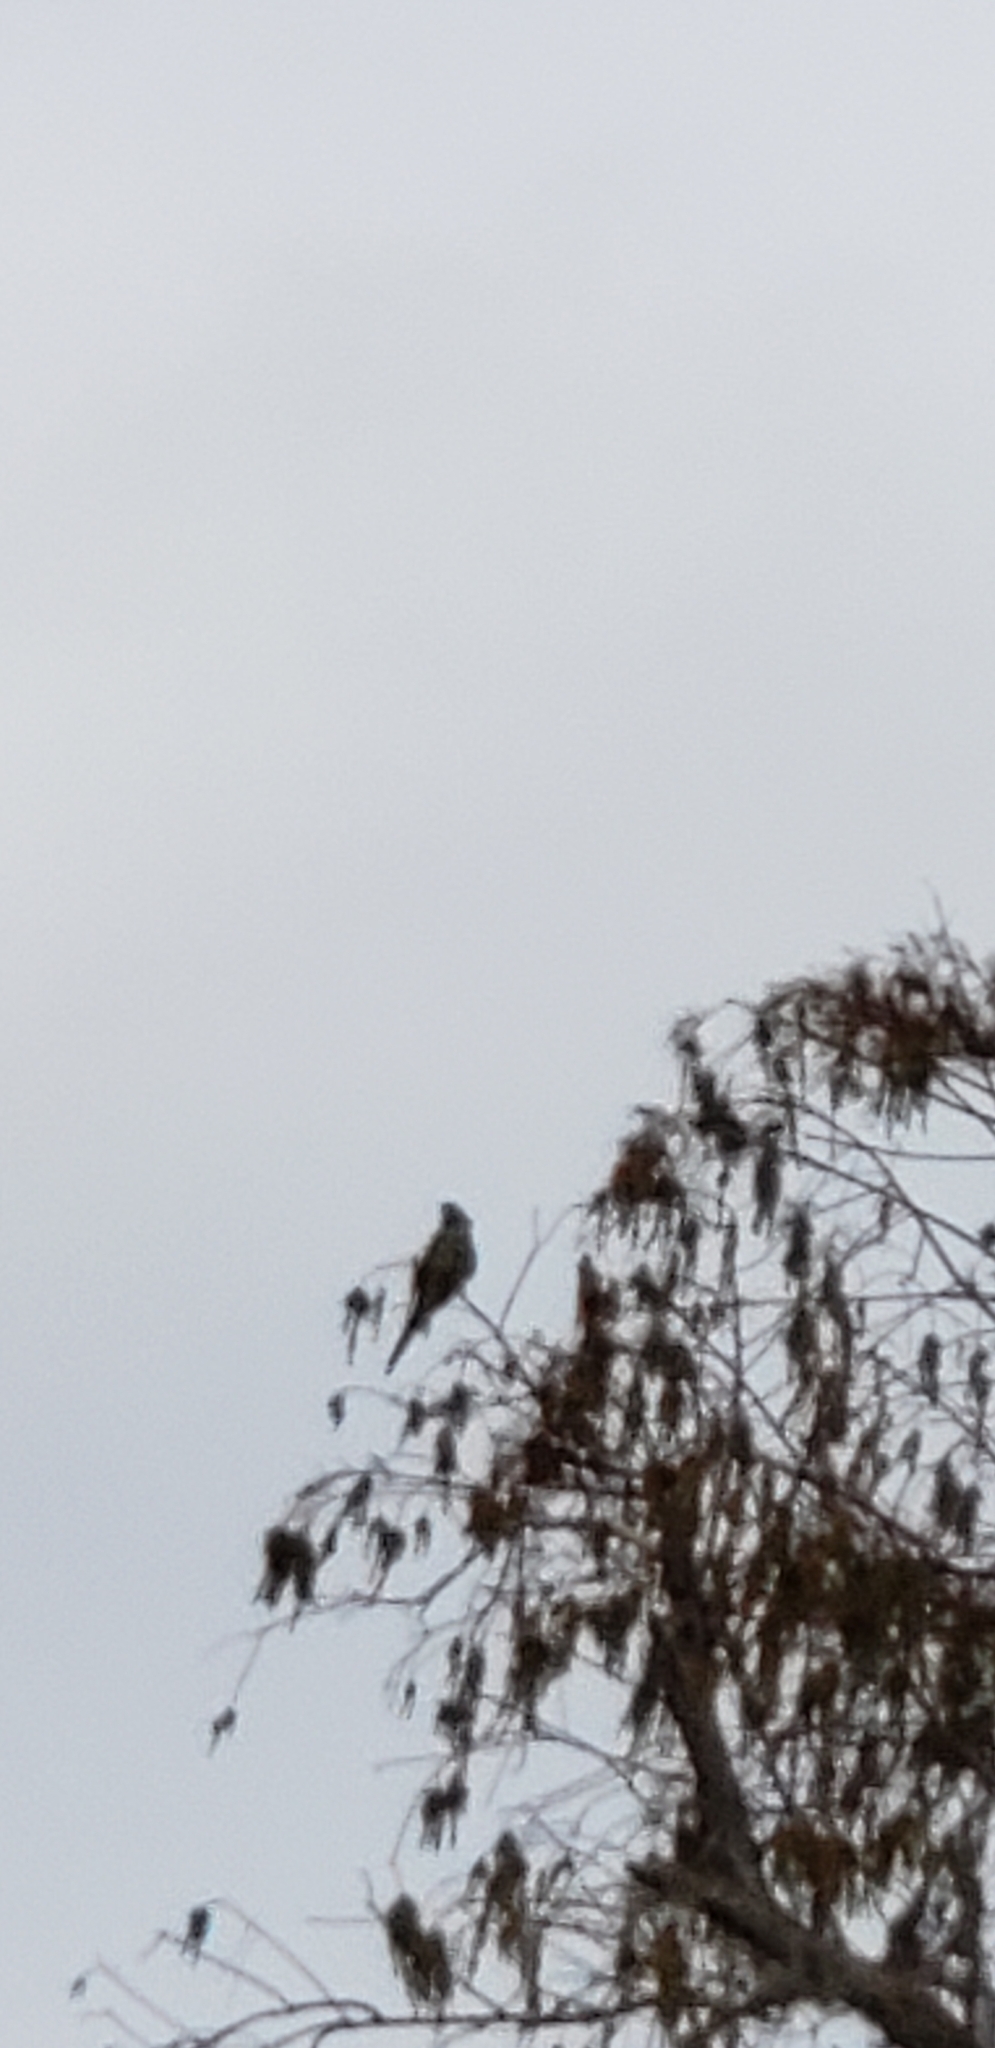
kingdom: Animalia
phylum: Chordata
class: Aves
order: Psittaciformes
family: Psittacidae
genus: Psittacara
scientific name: Psittacara
